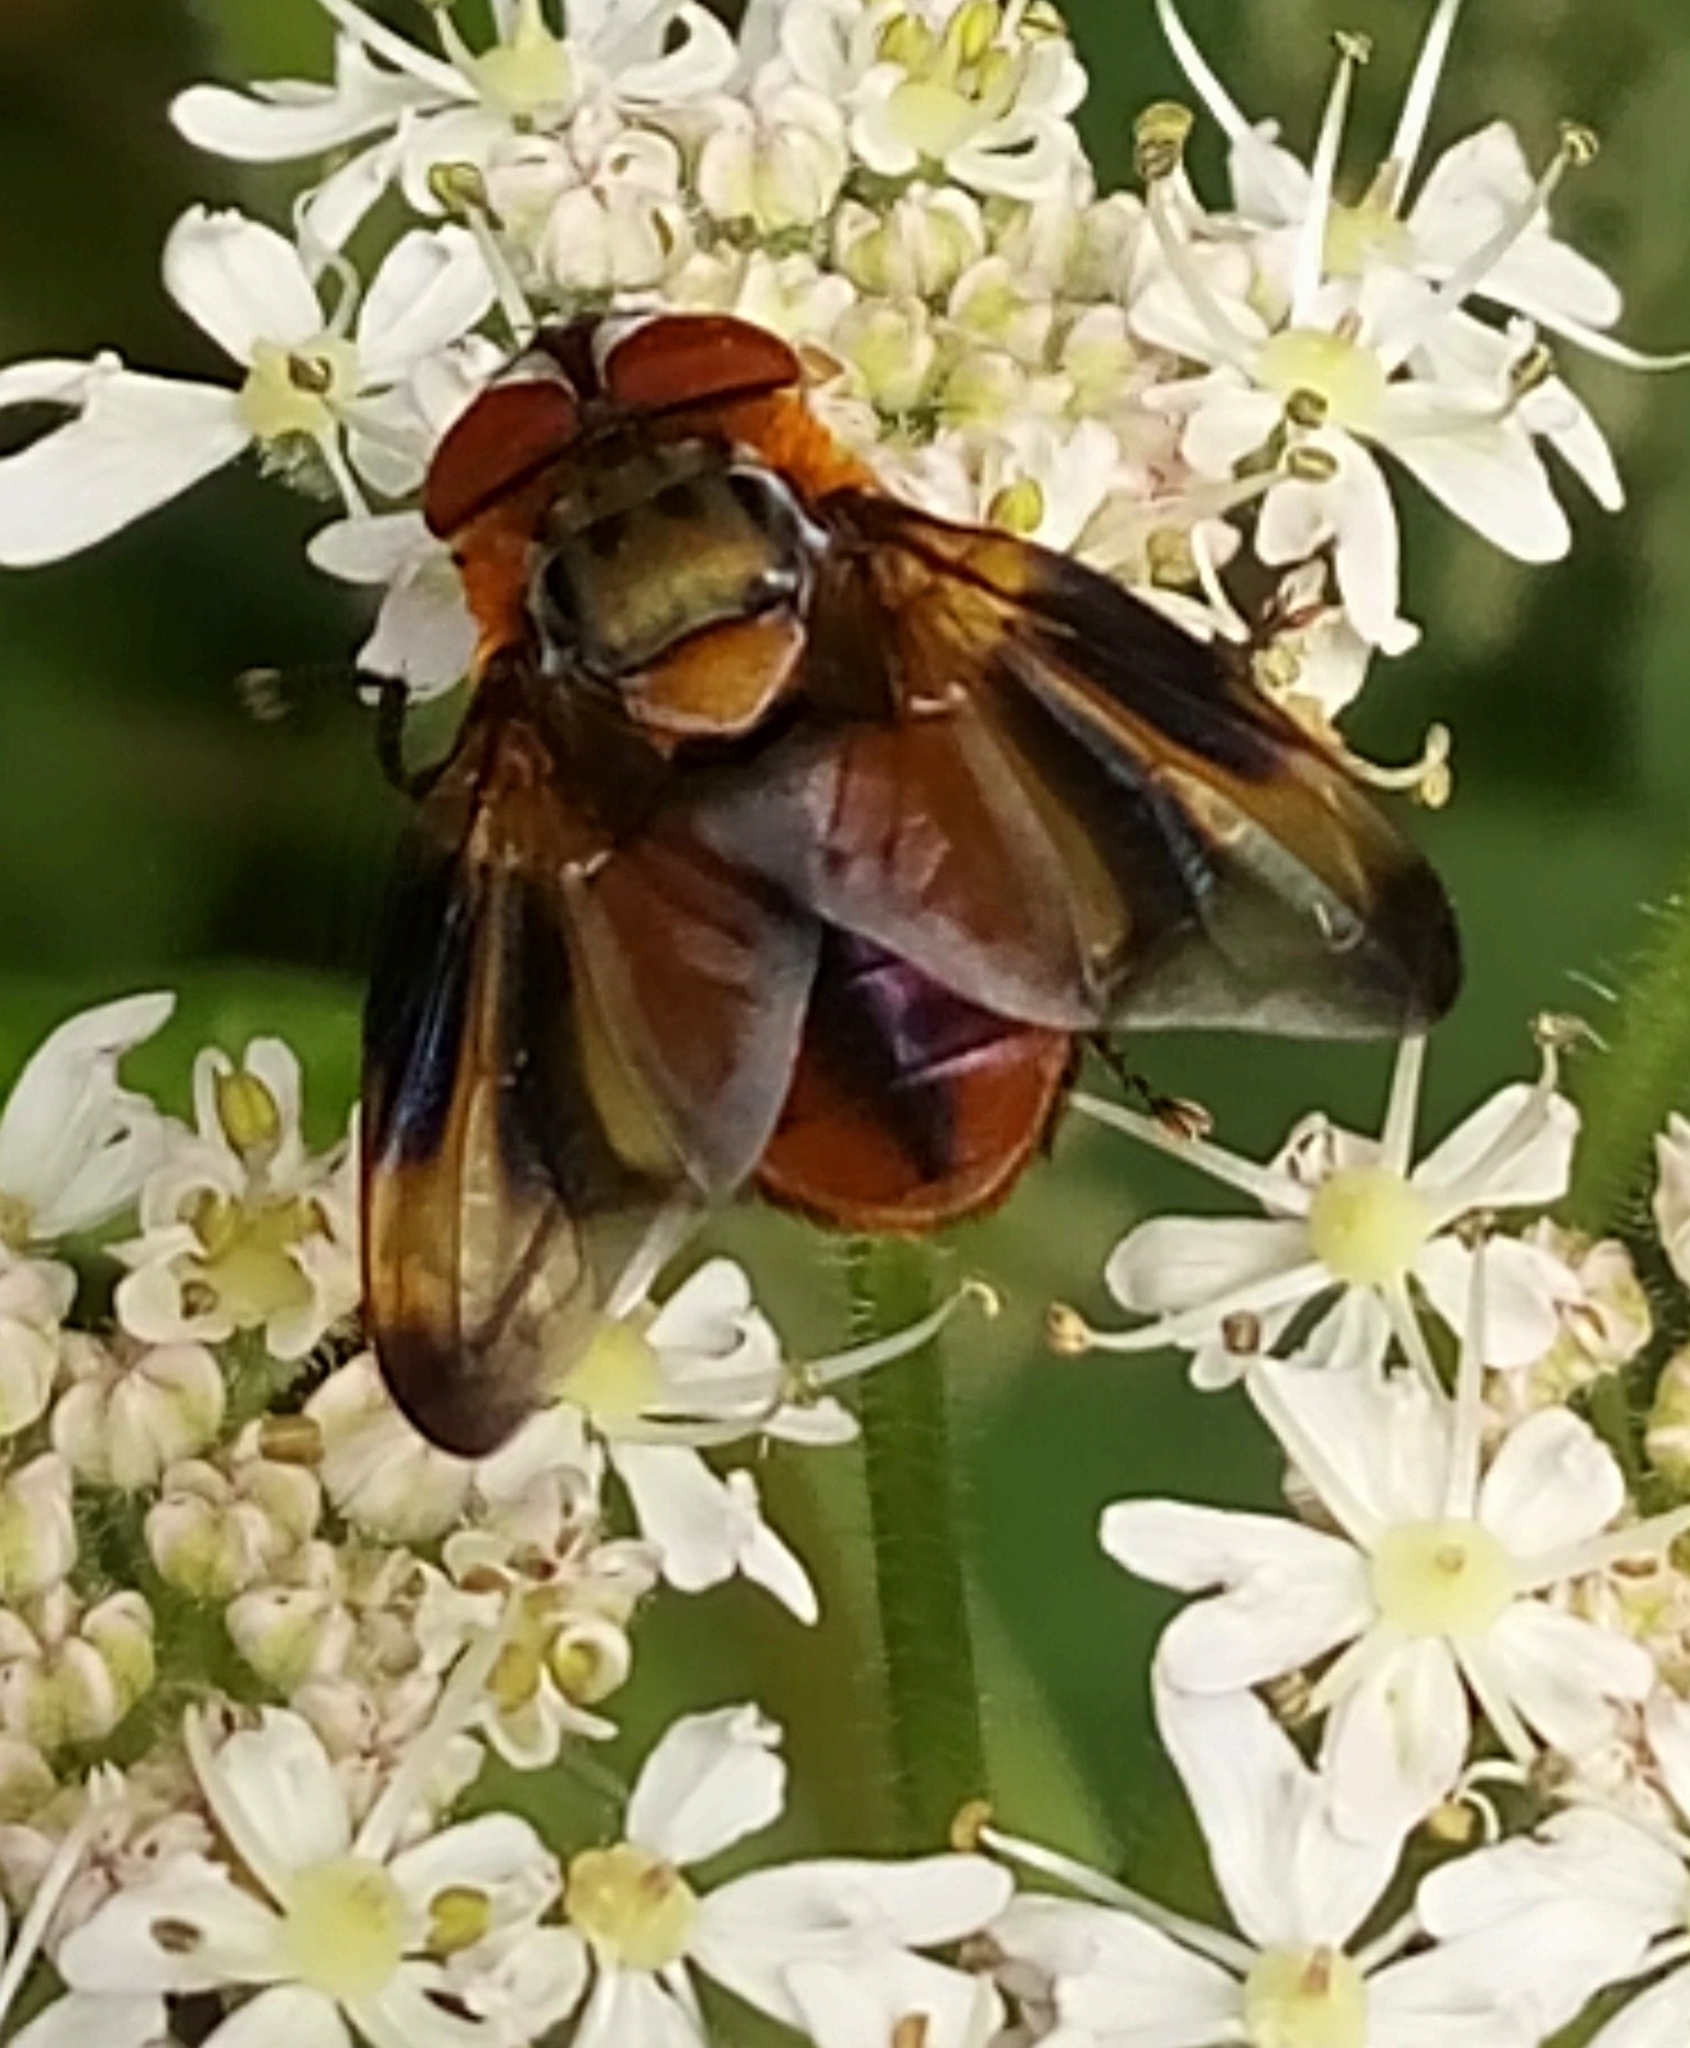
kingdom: Animalia
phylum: Arthropoda
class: Insecta
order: Diptera
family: Tachinidae
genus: Phasia
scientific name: Phasia hemiptera
